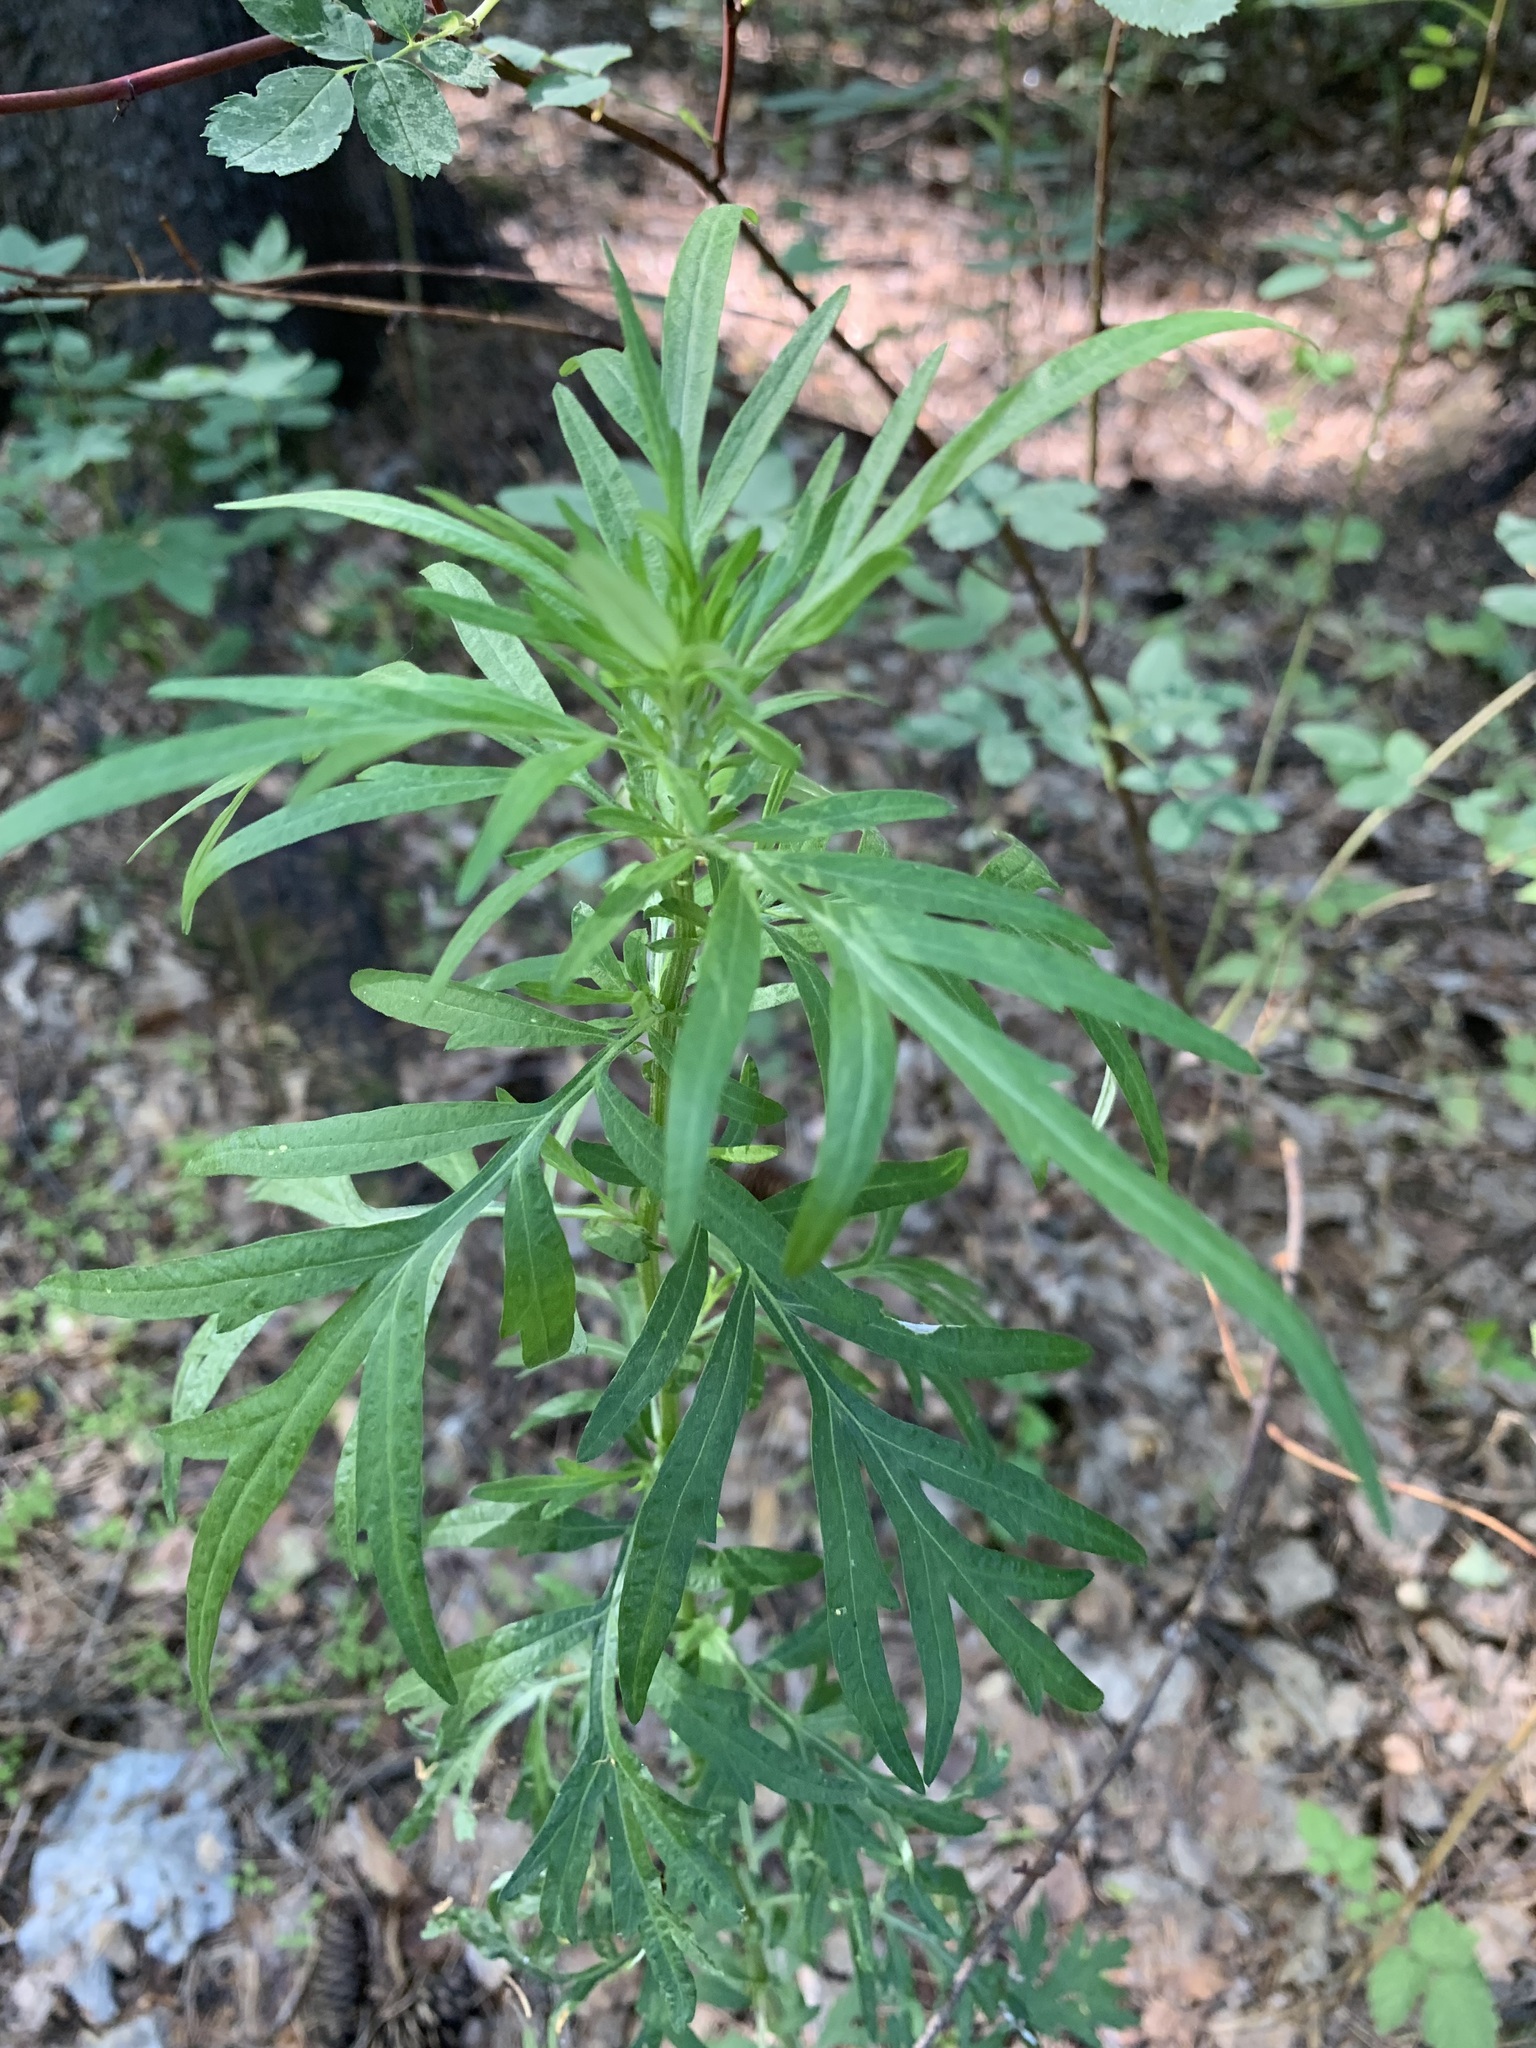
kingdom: Plantae
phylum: Tracheophyta
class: Magnoliopsida
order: Asterales
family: Asteraceae
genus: Artemisia
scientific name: Artemisia vulgaris
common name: Mugwort
